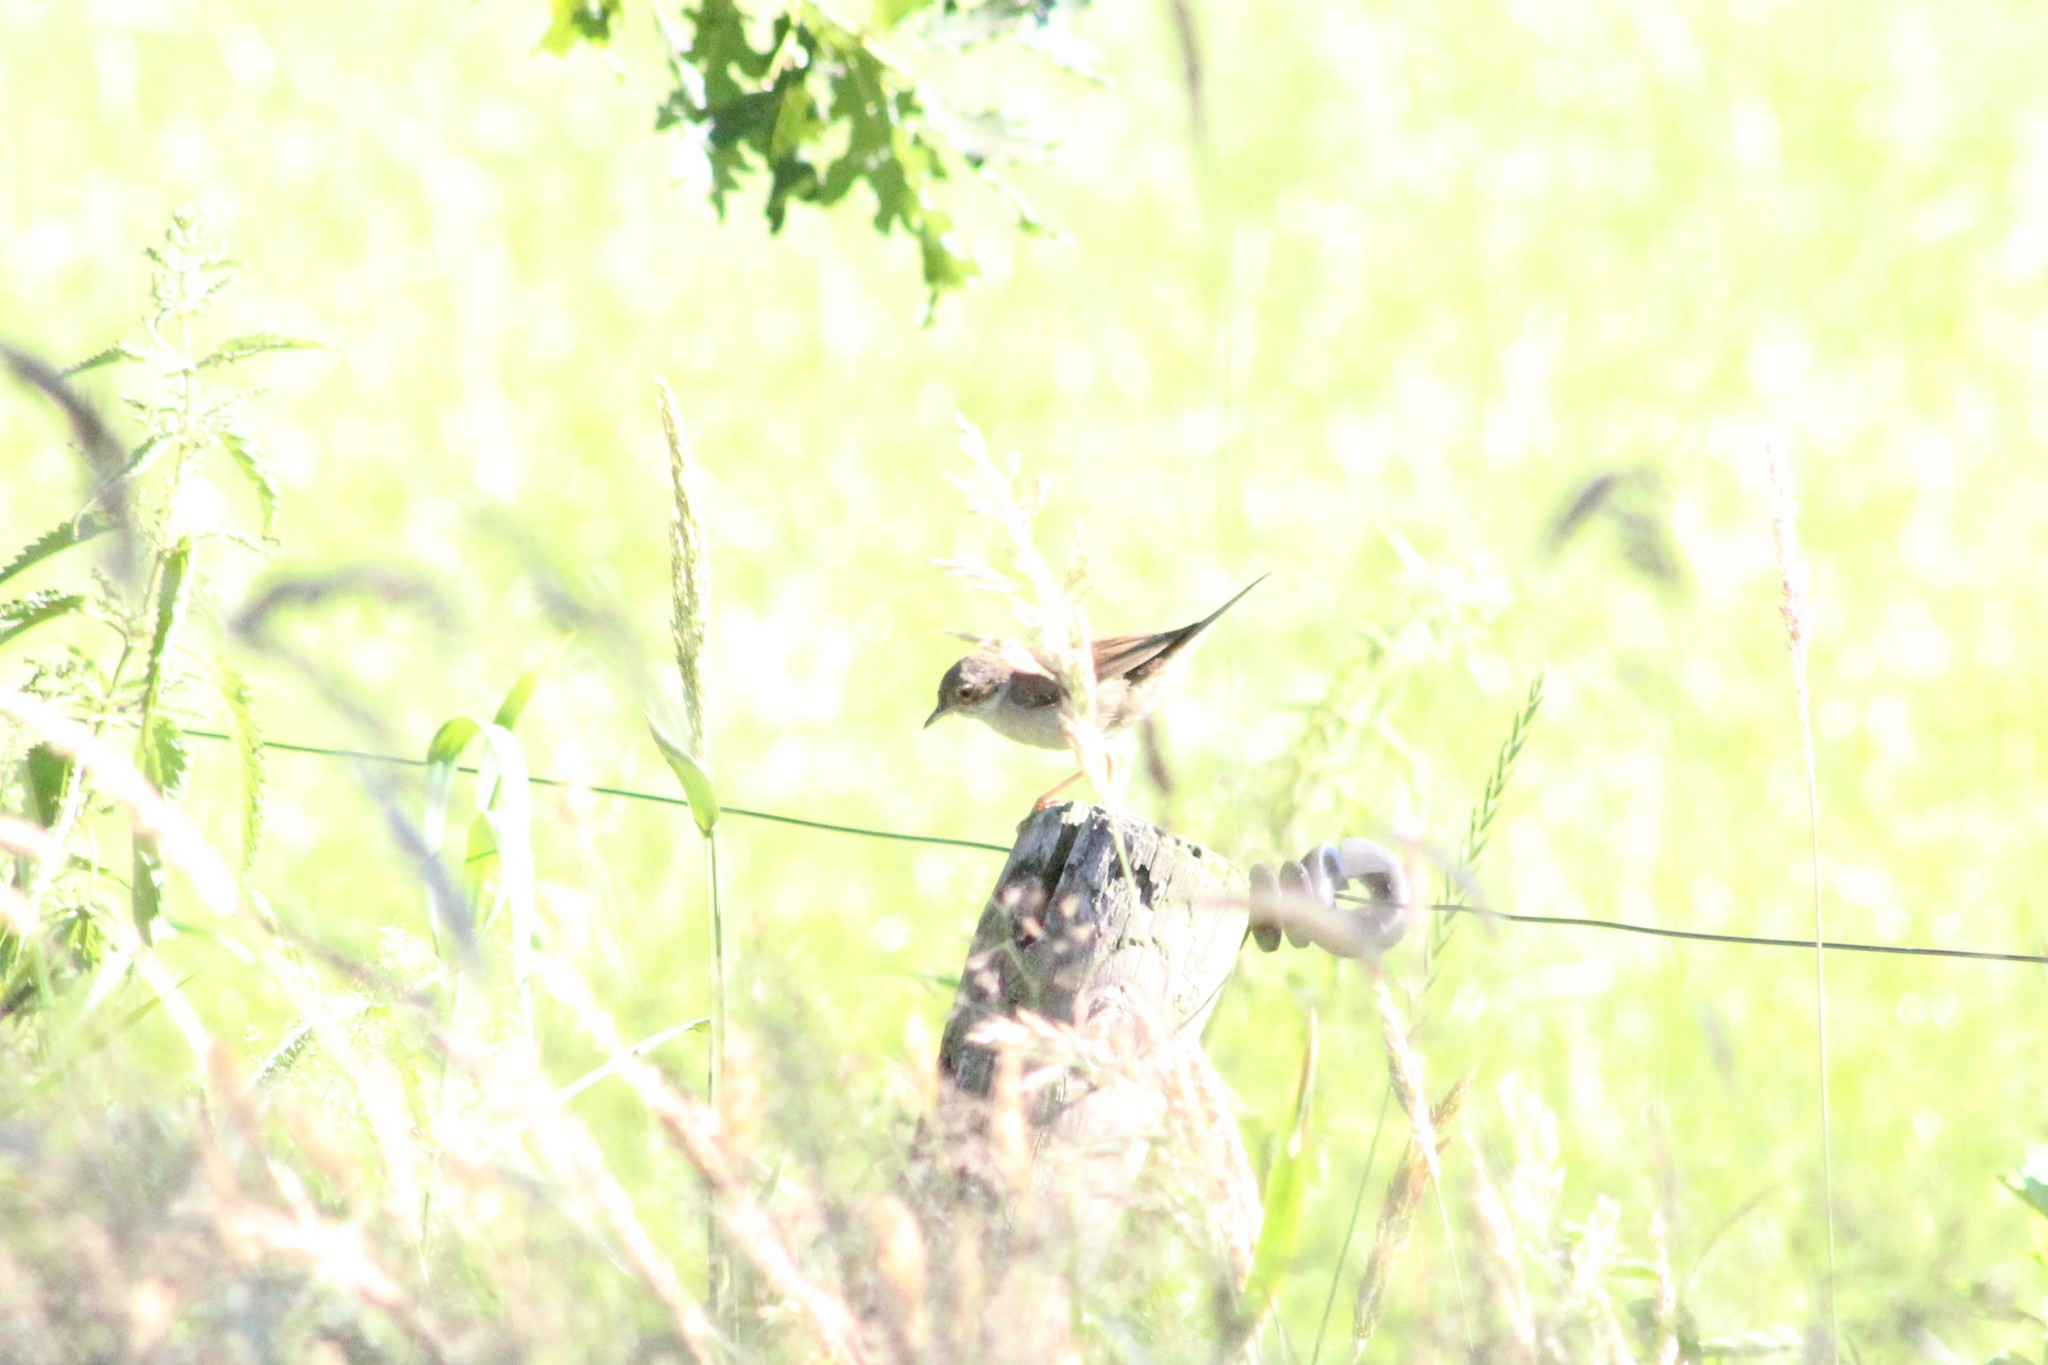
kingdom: Animalia
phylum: Chordata
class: Aves
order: Passeriformes
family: Sylviidae
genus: Sylvia
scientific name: Sylvia communis
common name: Common whitethroat
